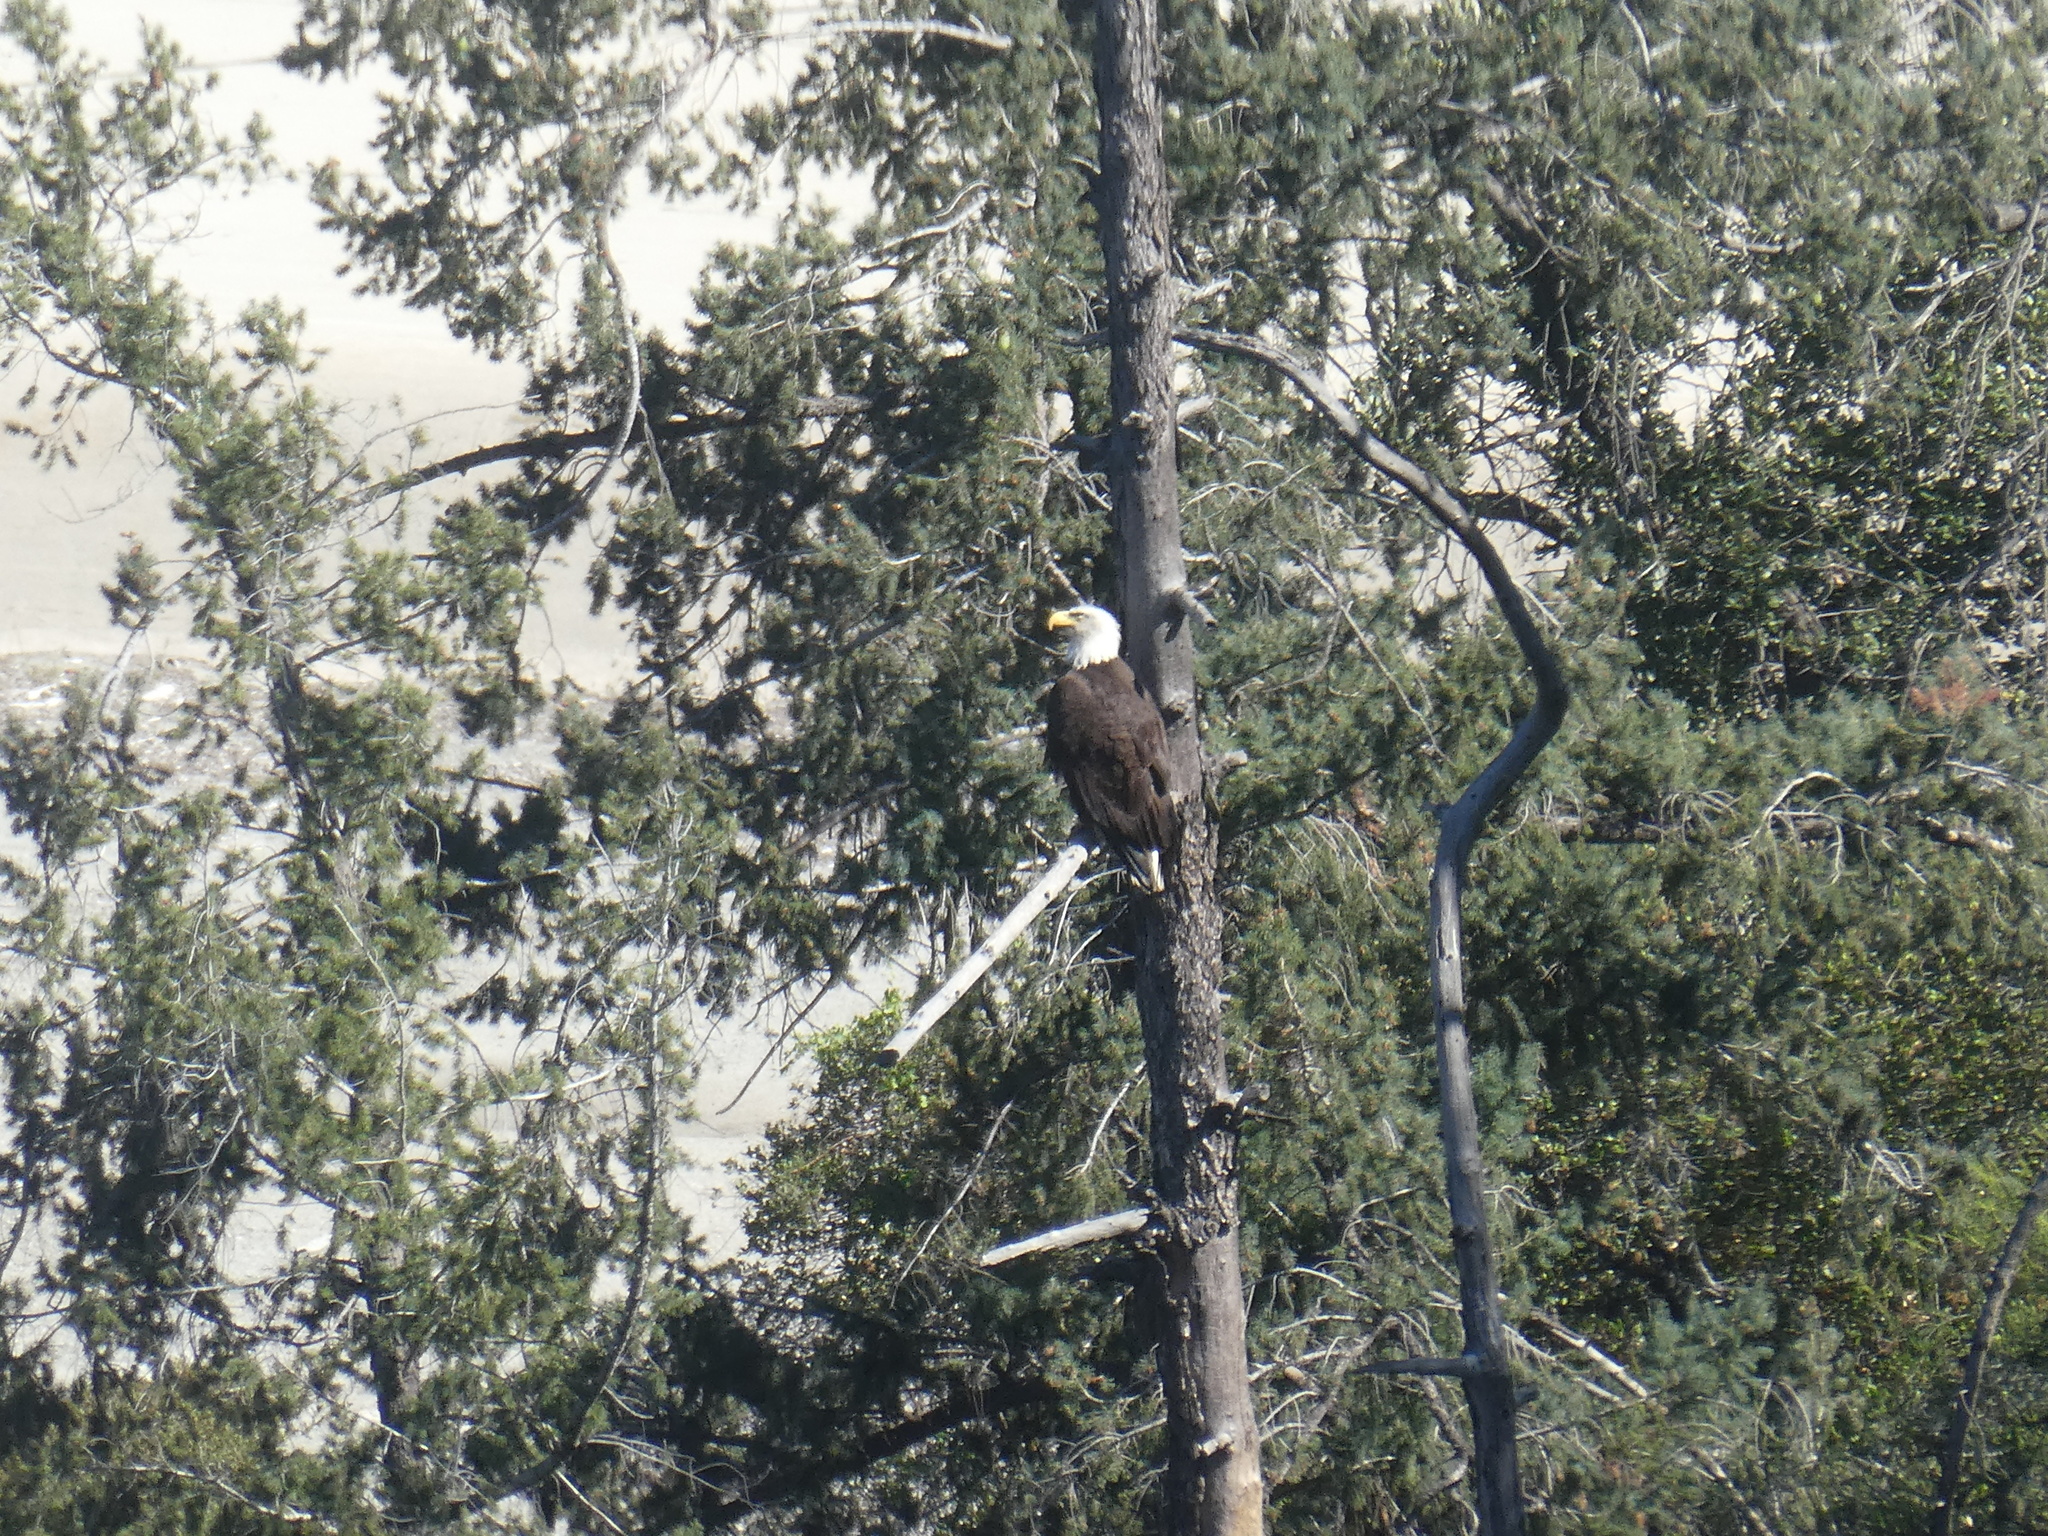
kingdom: Animalia
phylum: Chordata
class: Aves
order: Accipitriformes
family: Accipitridae
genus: Haliaeetus
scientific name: Haliaeetus leucocephalus
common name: Bald eagle
